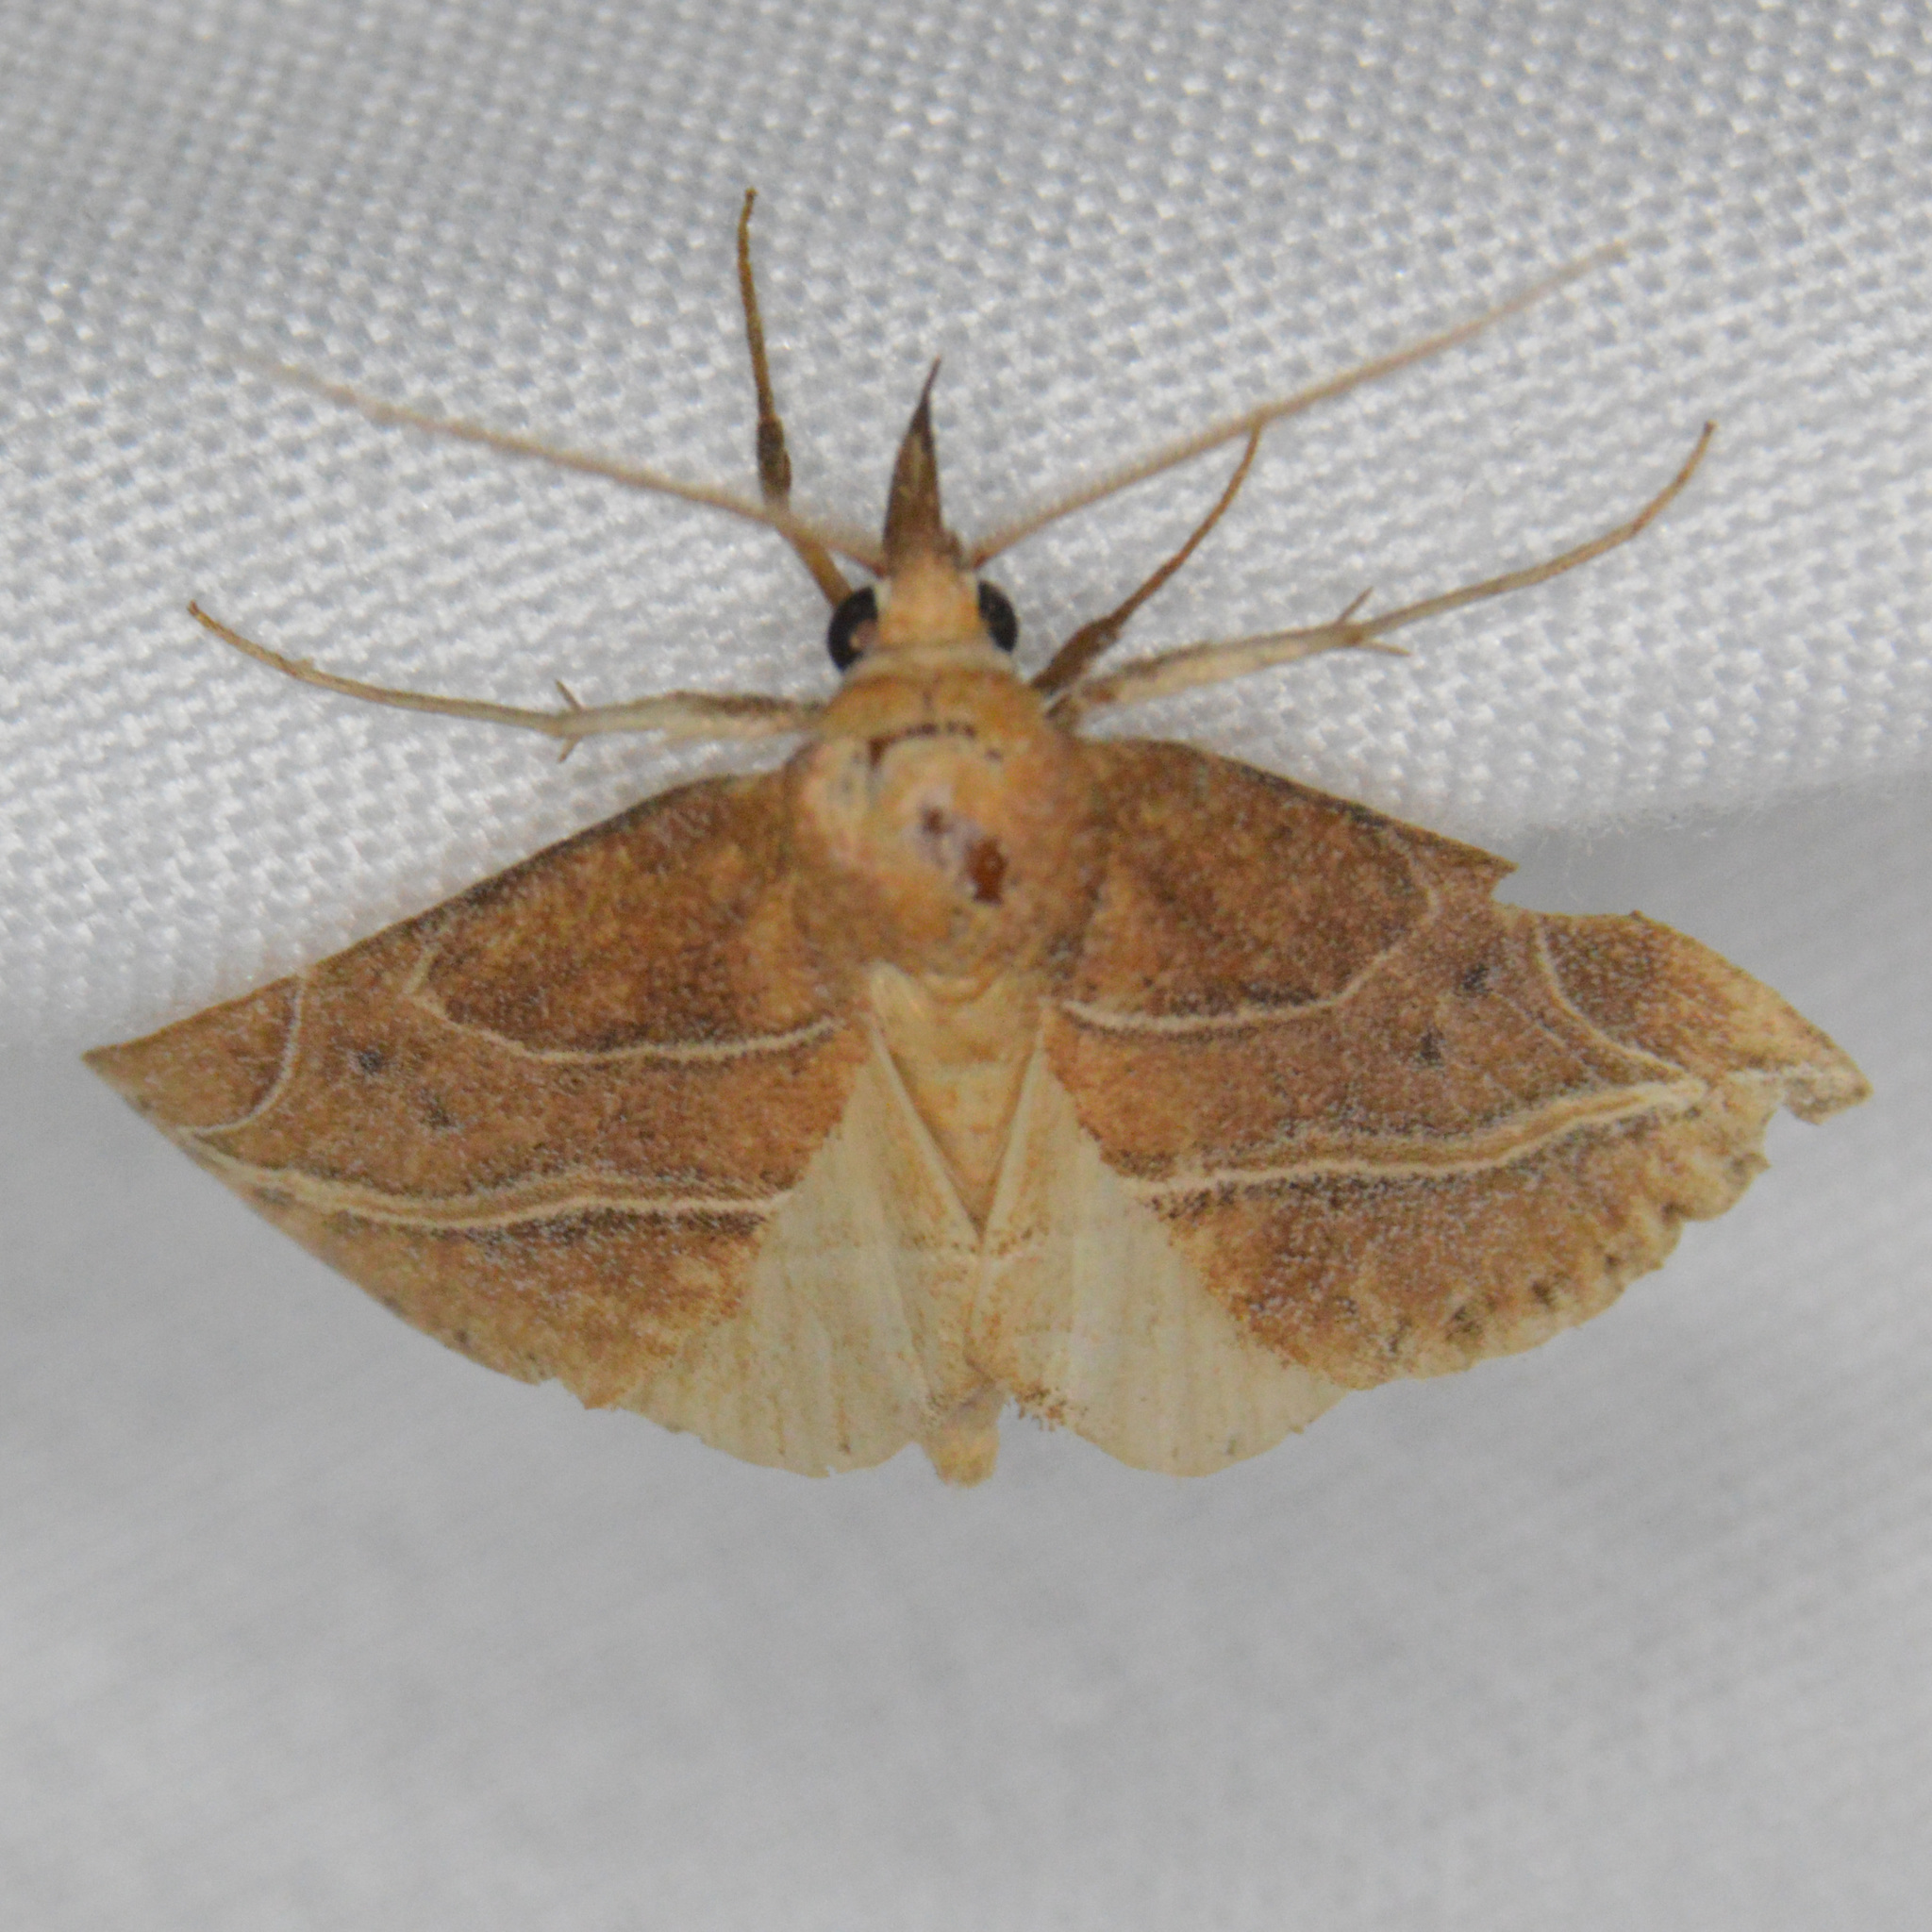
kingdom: Animalia
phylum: Arthropoda
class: Insecta
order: Lepidoptera
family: Erebidae
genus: Phyprosopus
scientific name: Phyprosopus callitrichoides
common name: Curved-lined owlet
